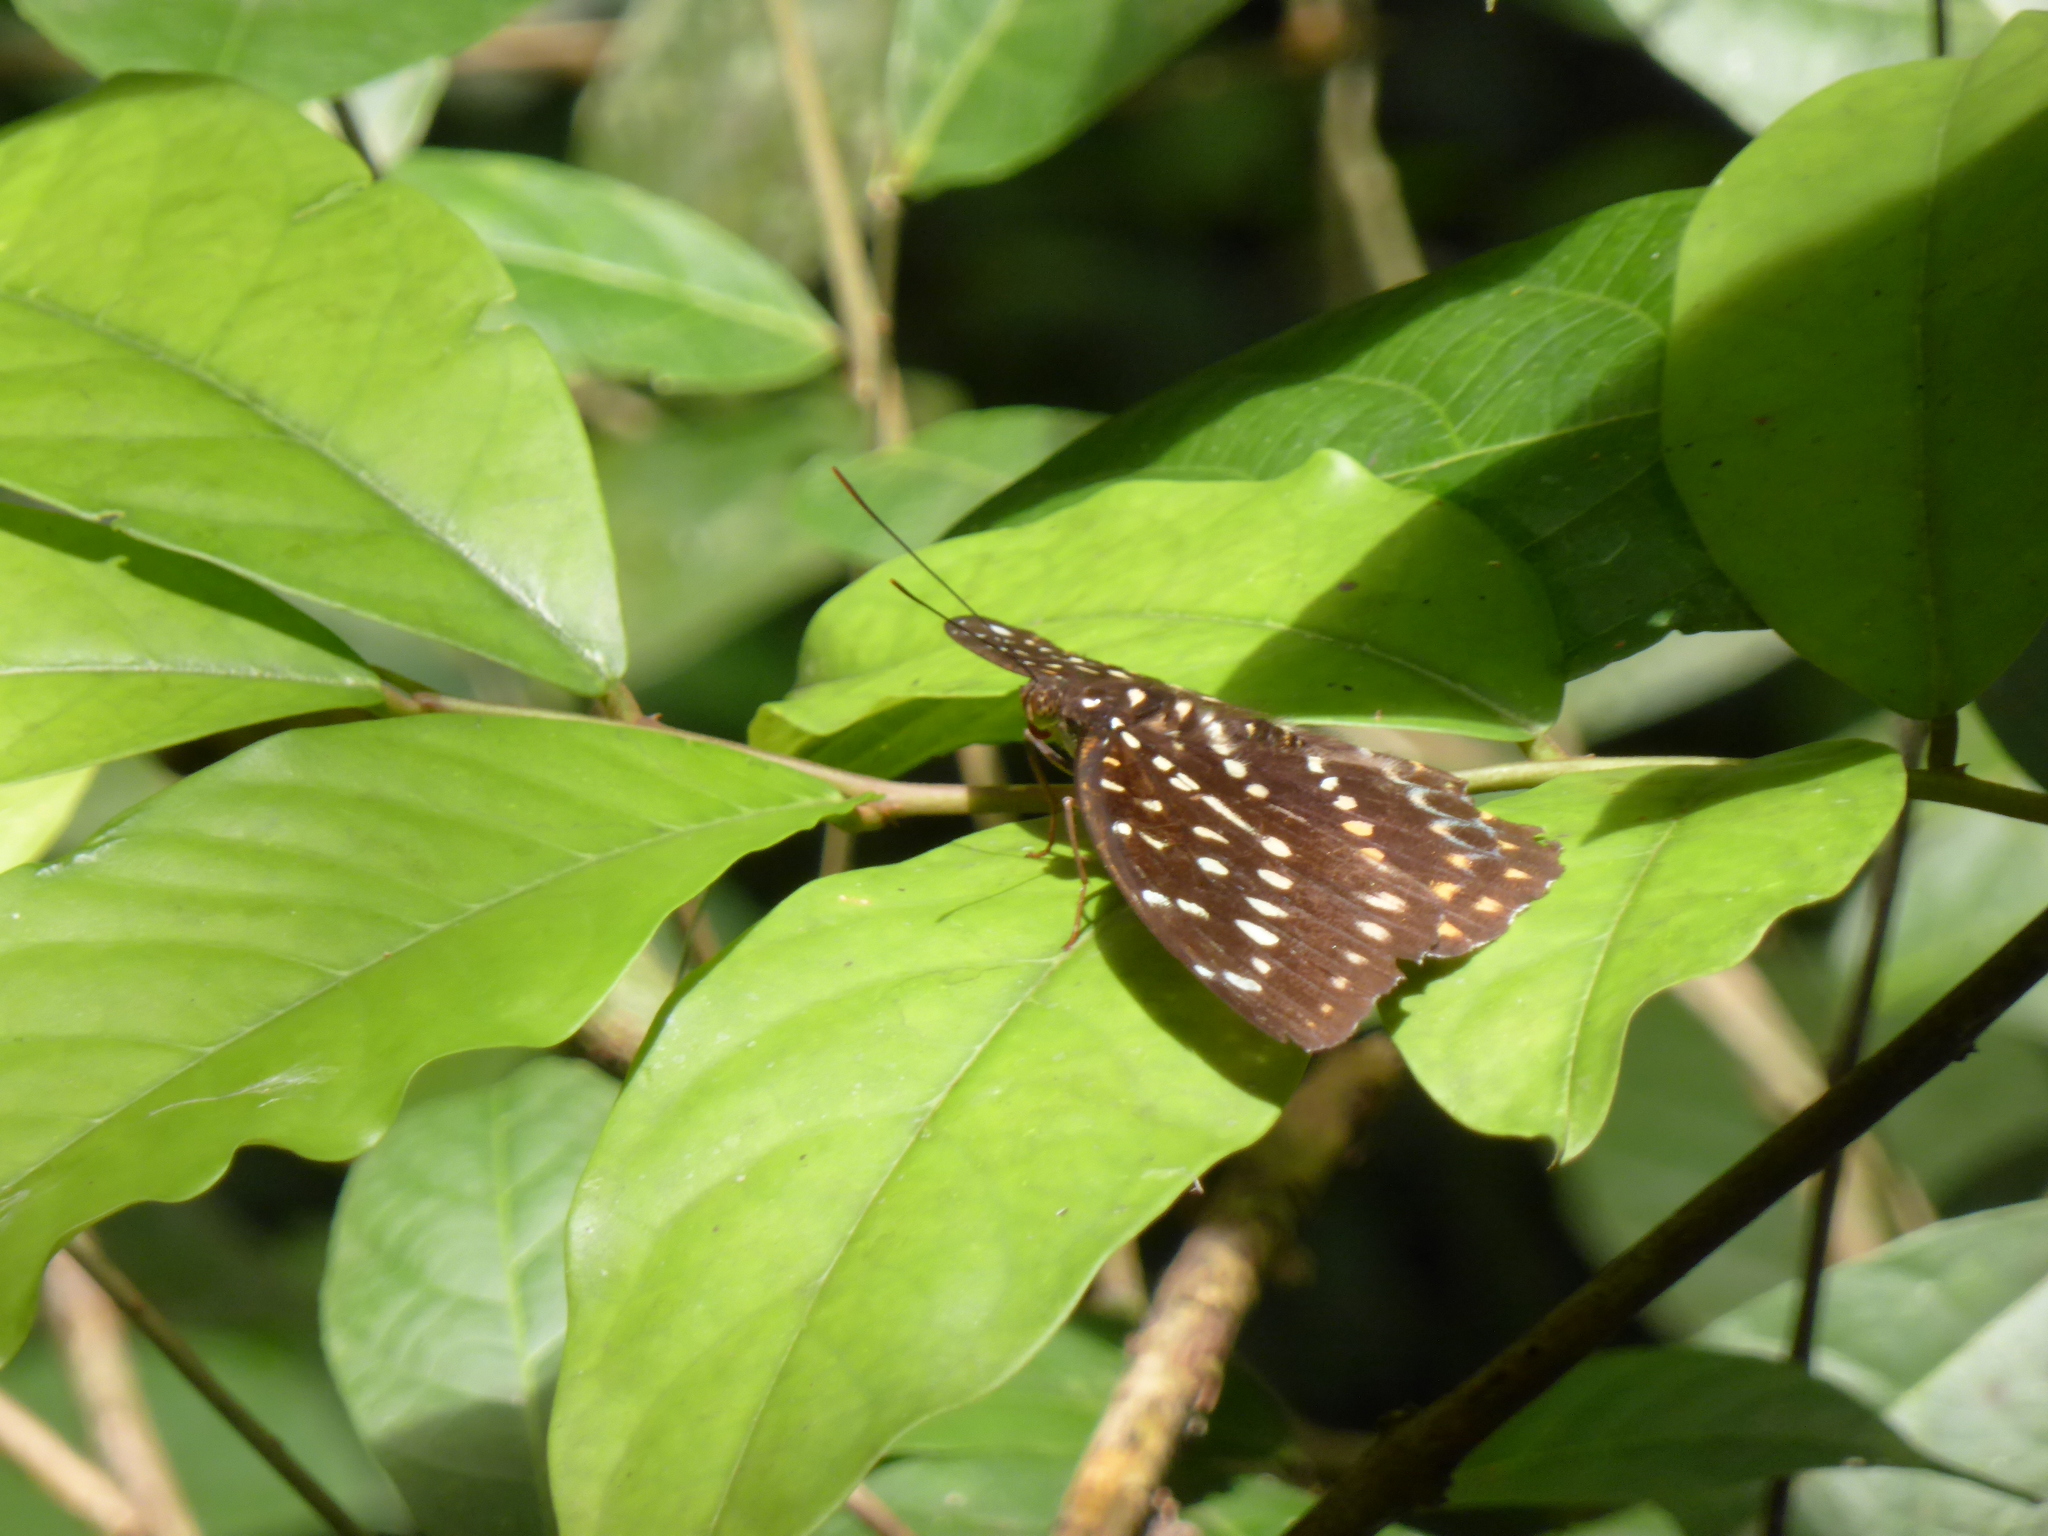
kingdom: Animalia
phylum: Arthropoda
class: Insecta
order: Lepidoptera
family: Nymphalidae
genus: Lexias
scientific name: Lexias dirtea
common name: Black-tipped archduke
